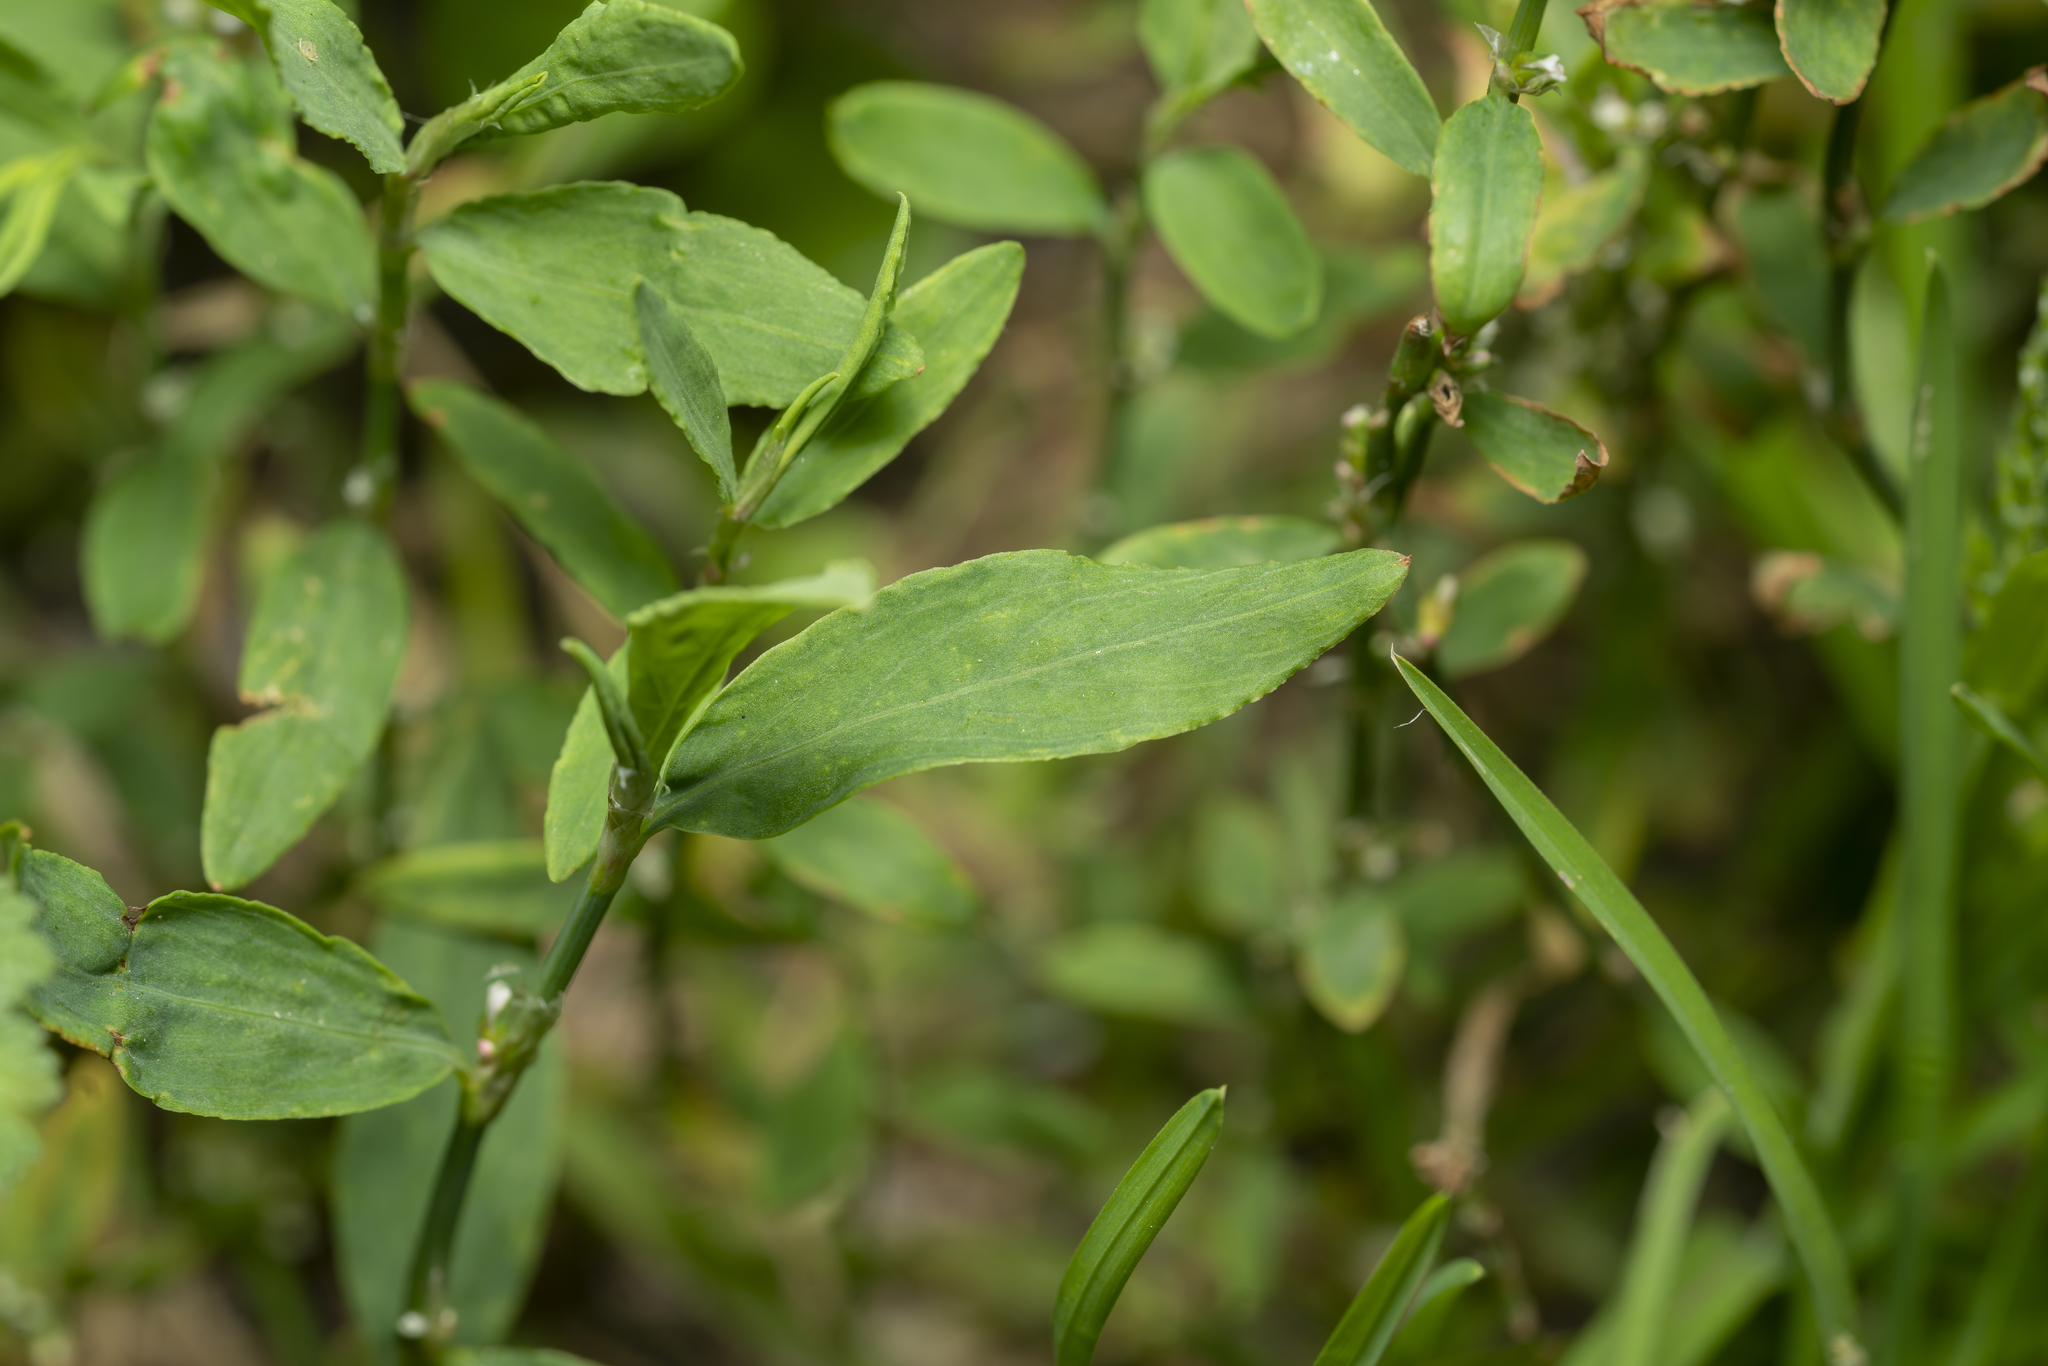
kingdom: Plantae
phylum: Tracheophyta
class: Magnoliopsida
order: Caryophyllales
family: Polygonaceae
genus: Polygonum
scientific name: Polygonum aviculare
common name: Prostrate knotweed
